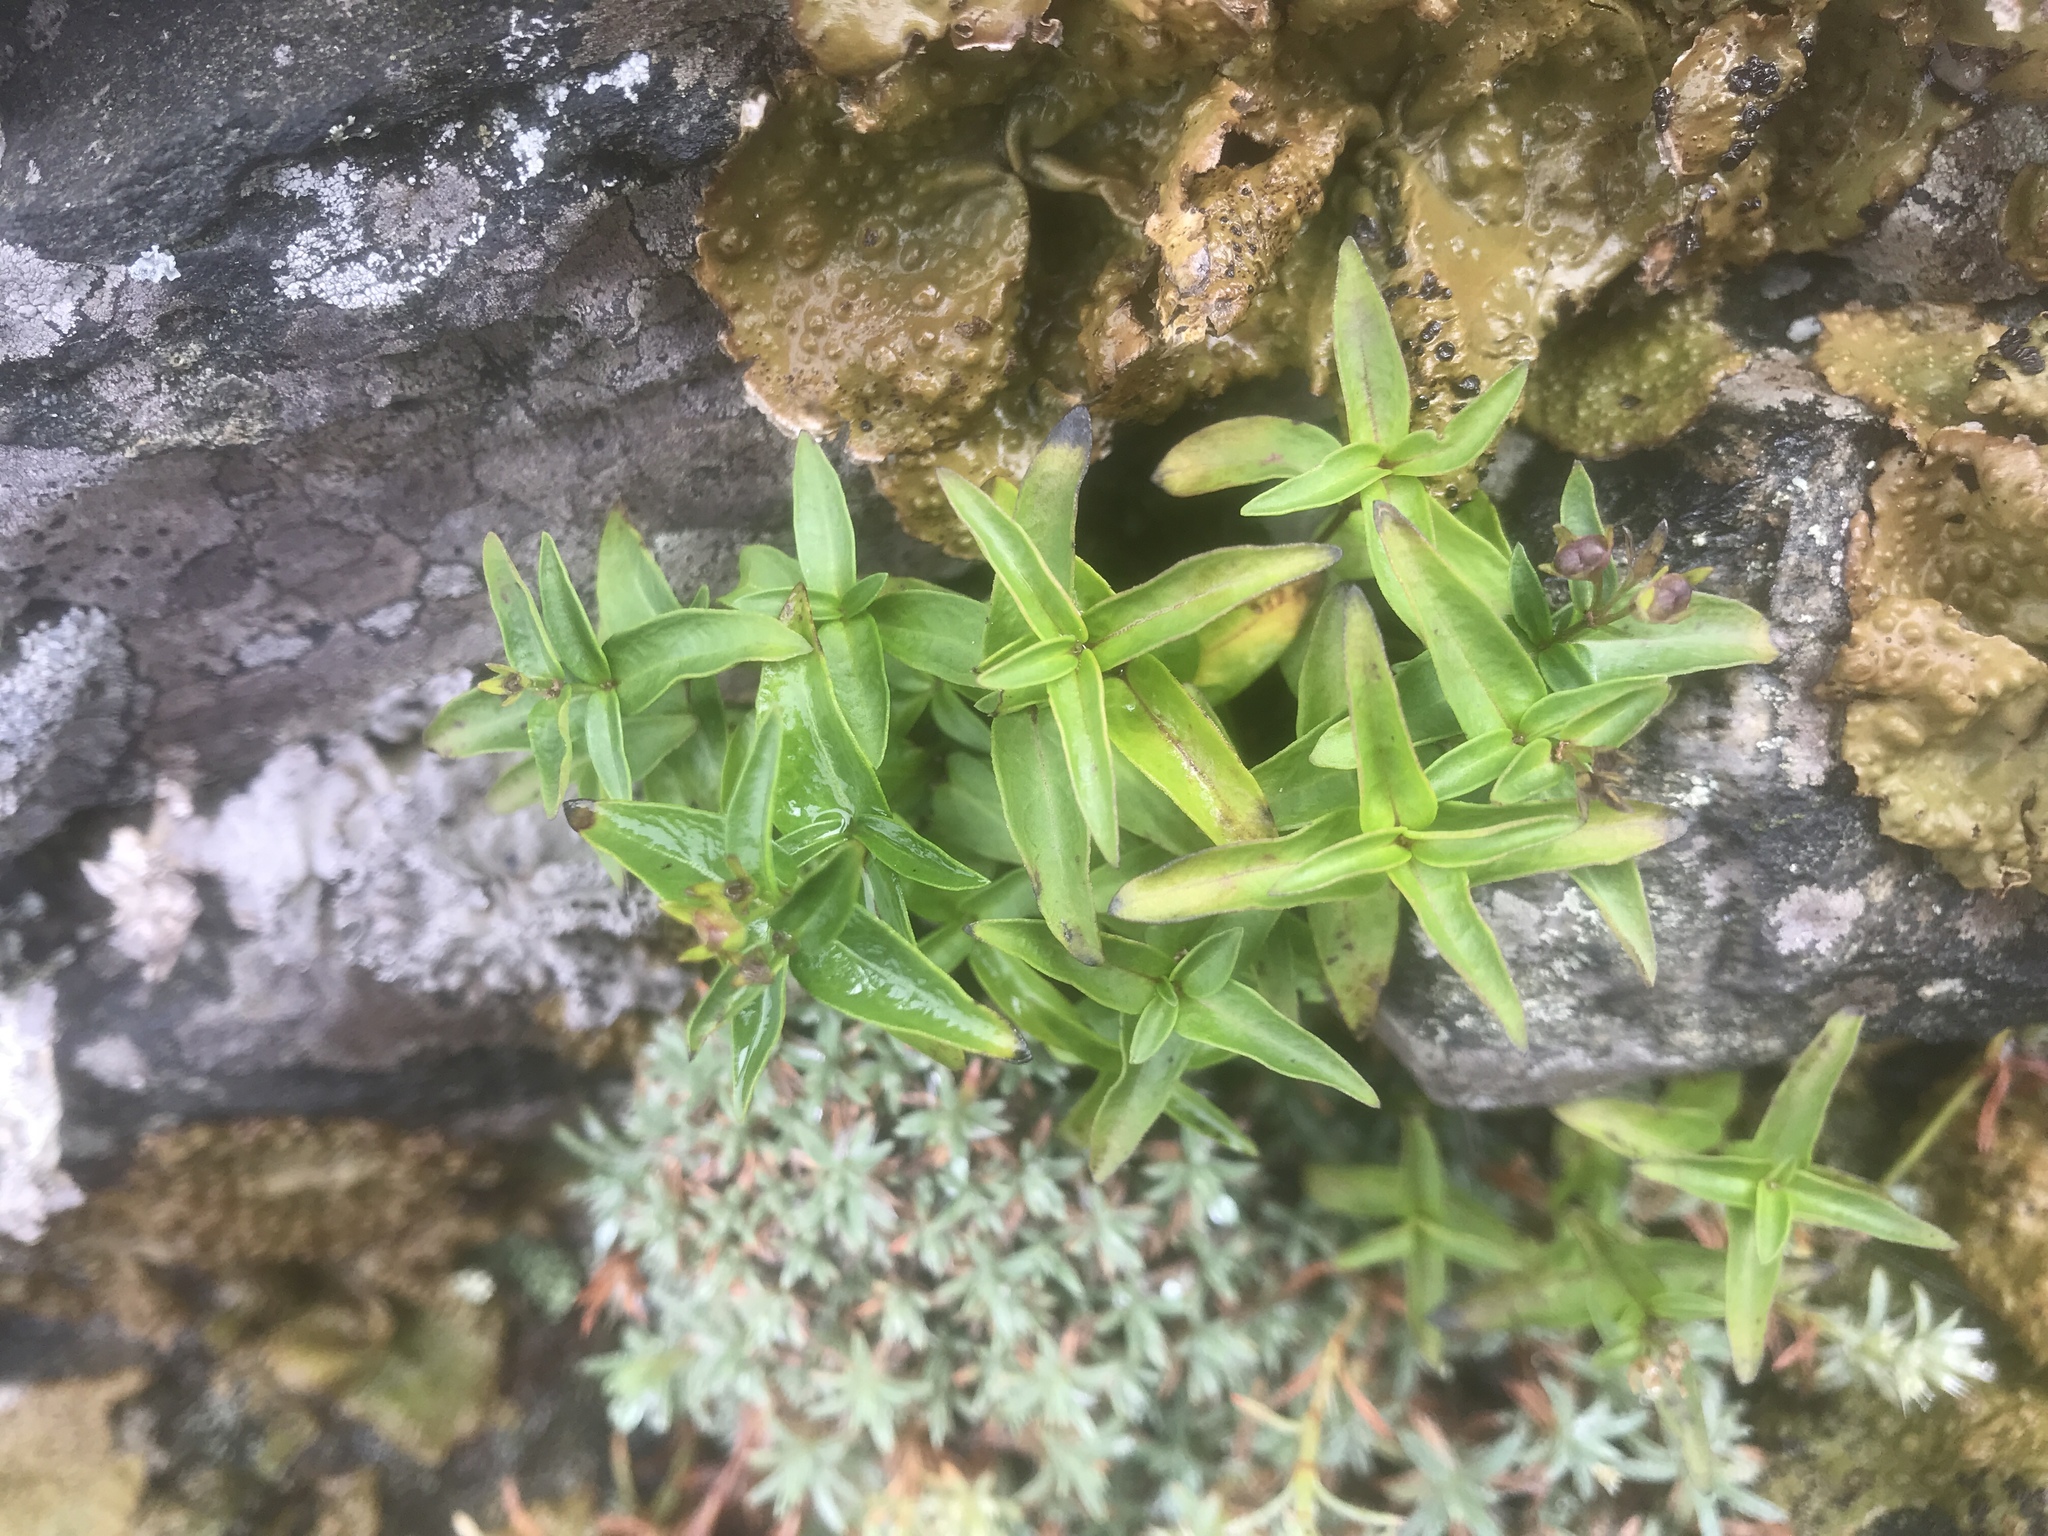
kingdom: Plantae
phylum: Tracheophyta
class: Magnoliopsida
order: Gentianales
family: Rubiaceae
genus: Houstonia
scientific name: Houstonia purpurea
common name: Summer bluet
